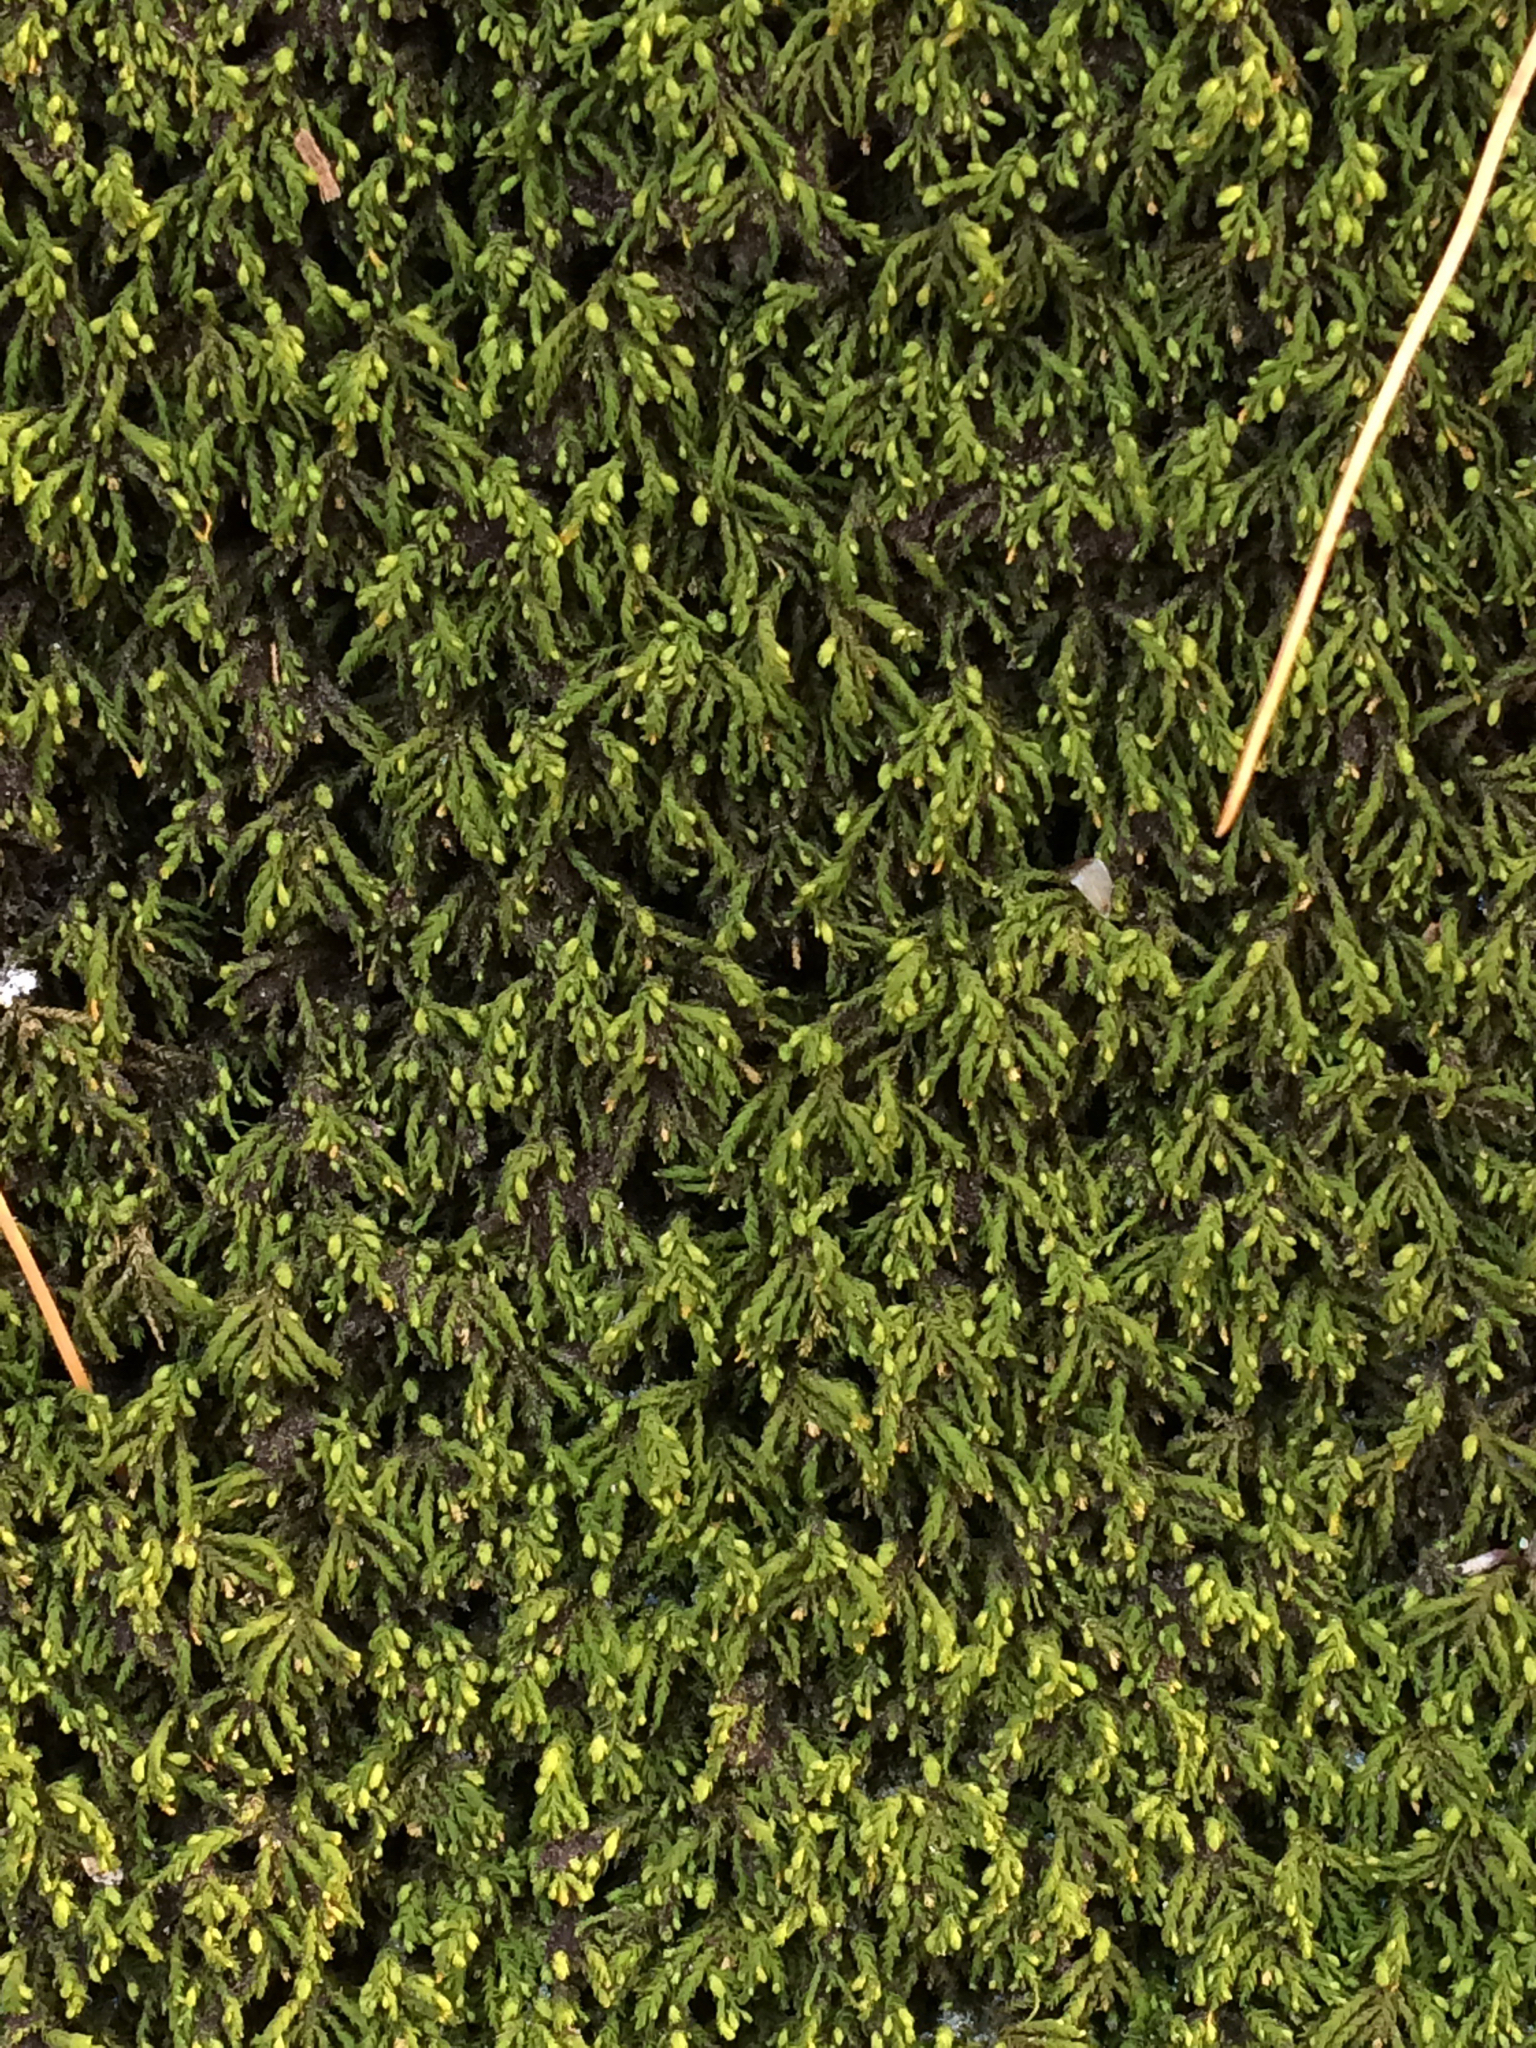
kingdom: Plantae
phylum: Bryophyta
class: Bryopsida
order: Hypnales
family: Neckeraceae
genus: Pseudanomodon
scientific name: Pseudanomodon attenuatus
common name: Tree-skirt moss
